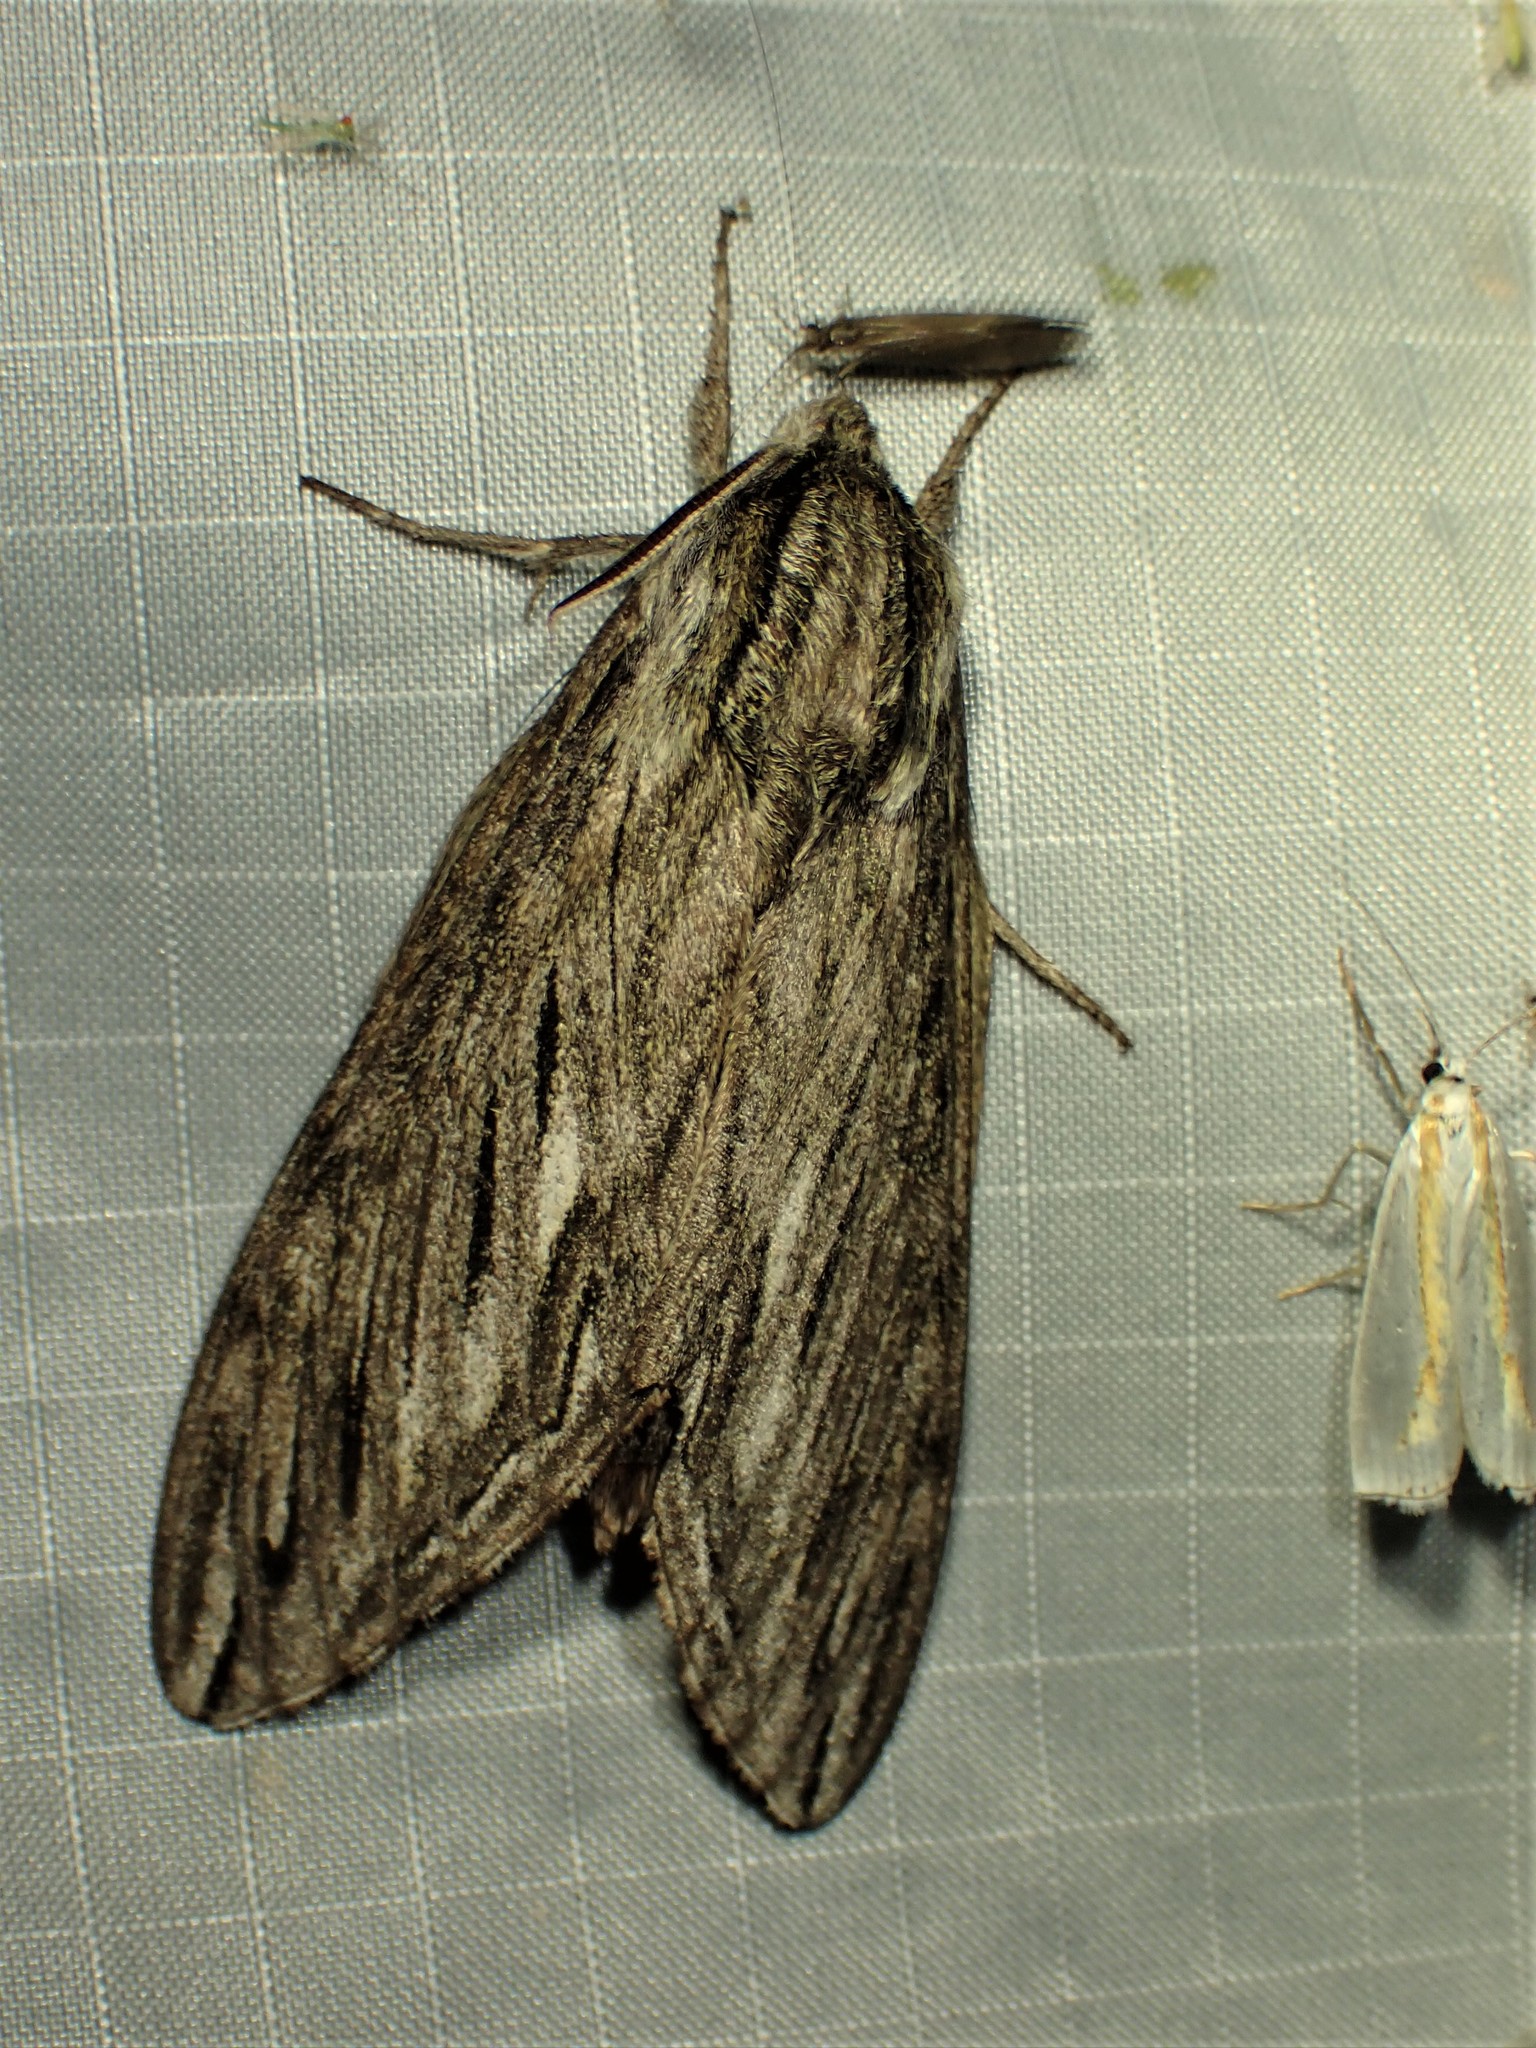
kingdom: Animalia
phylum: Arthropoda
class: Insecta
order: Lepidoptera
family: Sphingidae
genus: Sphinx
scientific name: Sphinx canadensis
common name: Canadian sphinx
